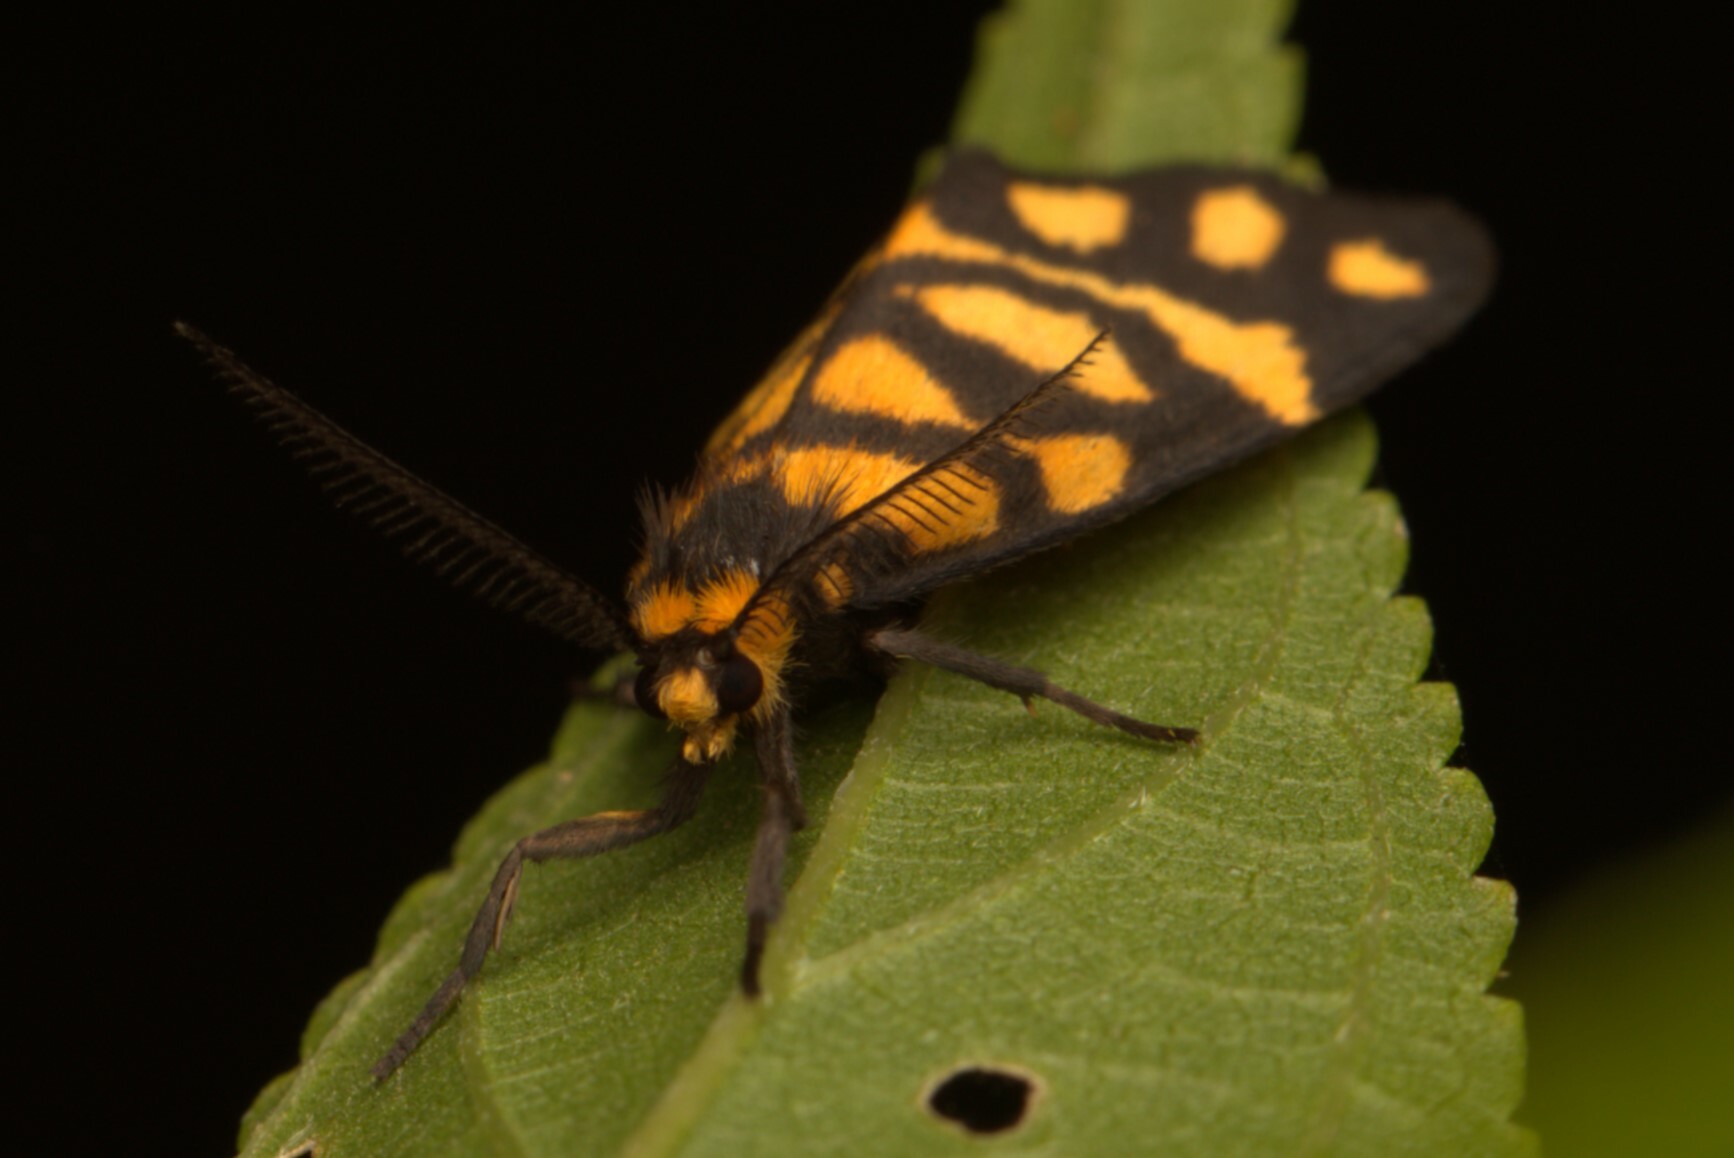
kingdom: Animalia
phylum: Arthropoda
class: Insecta
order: Lepidoptera
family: Erebidae
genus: Asura
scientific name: Asura lydia
